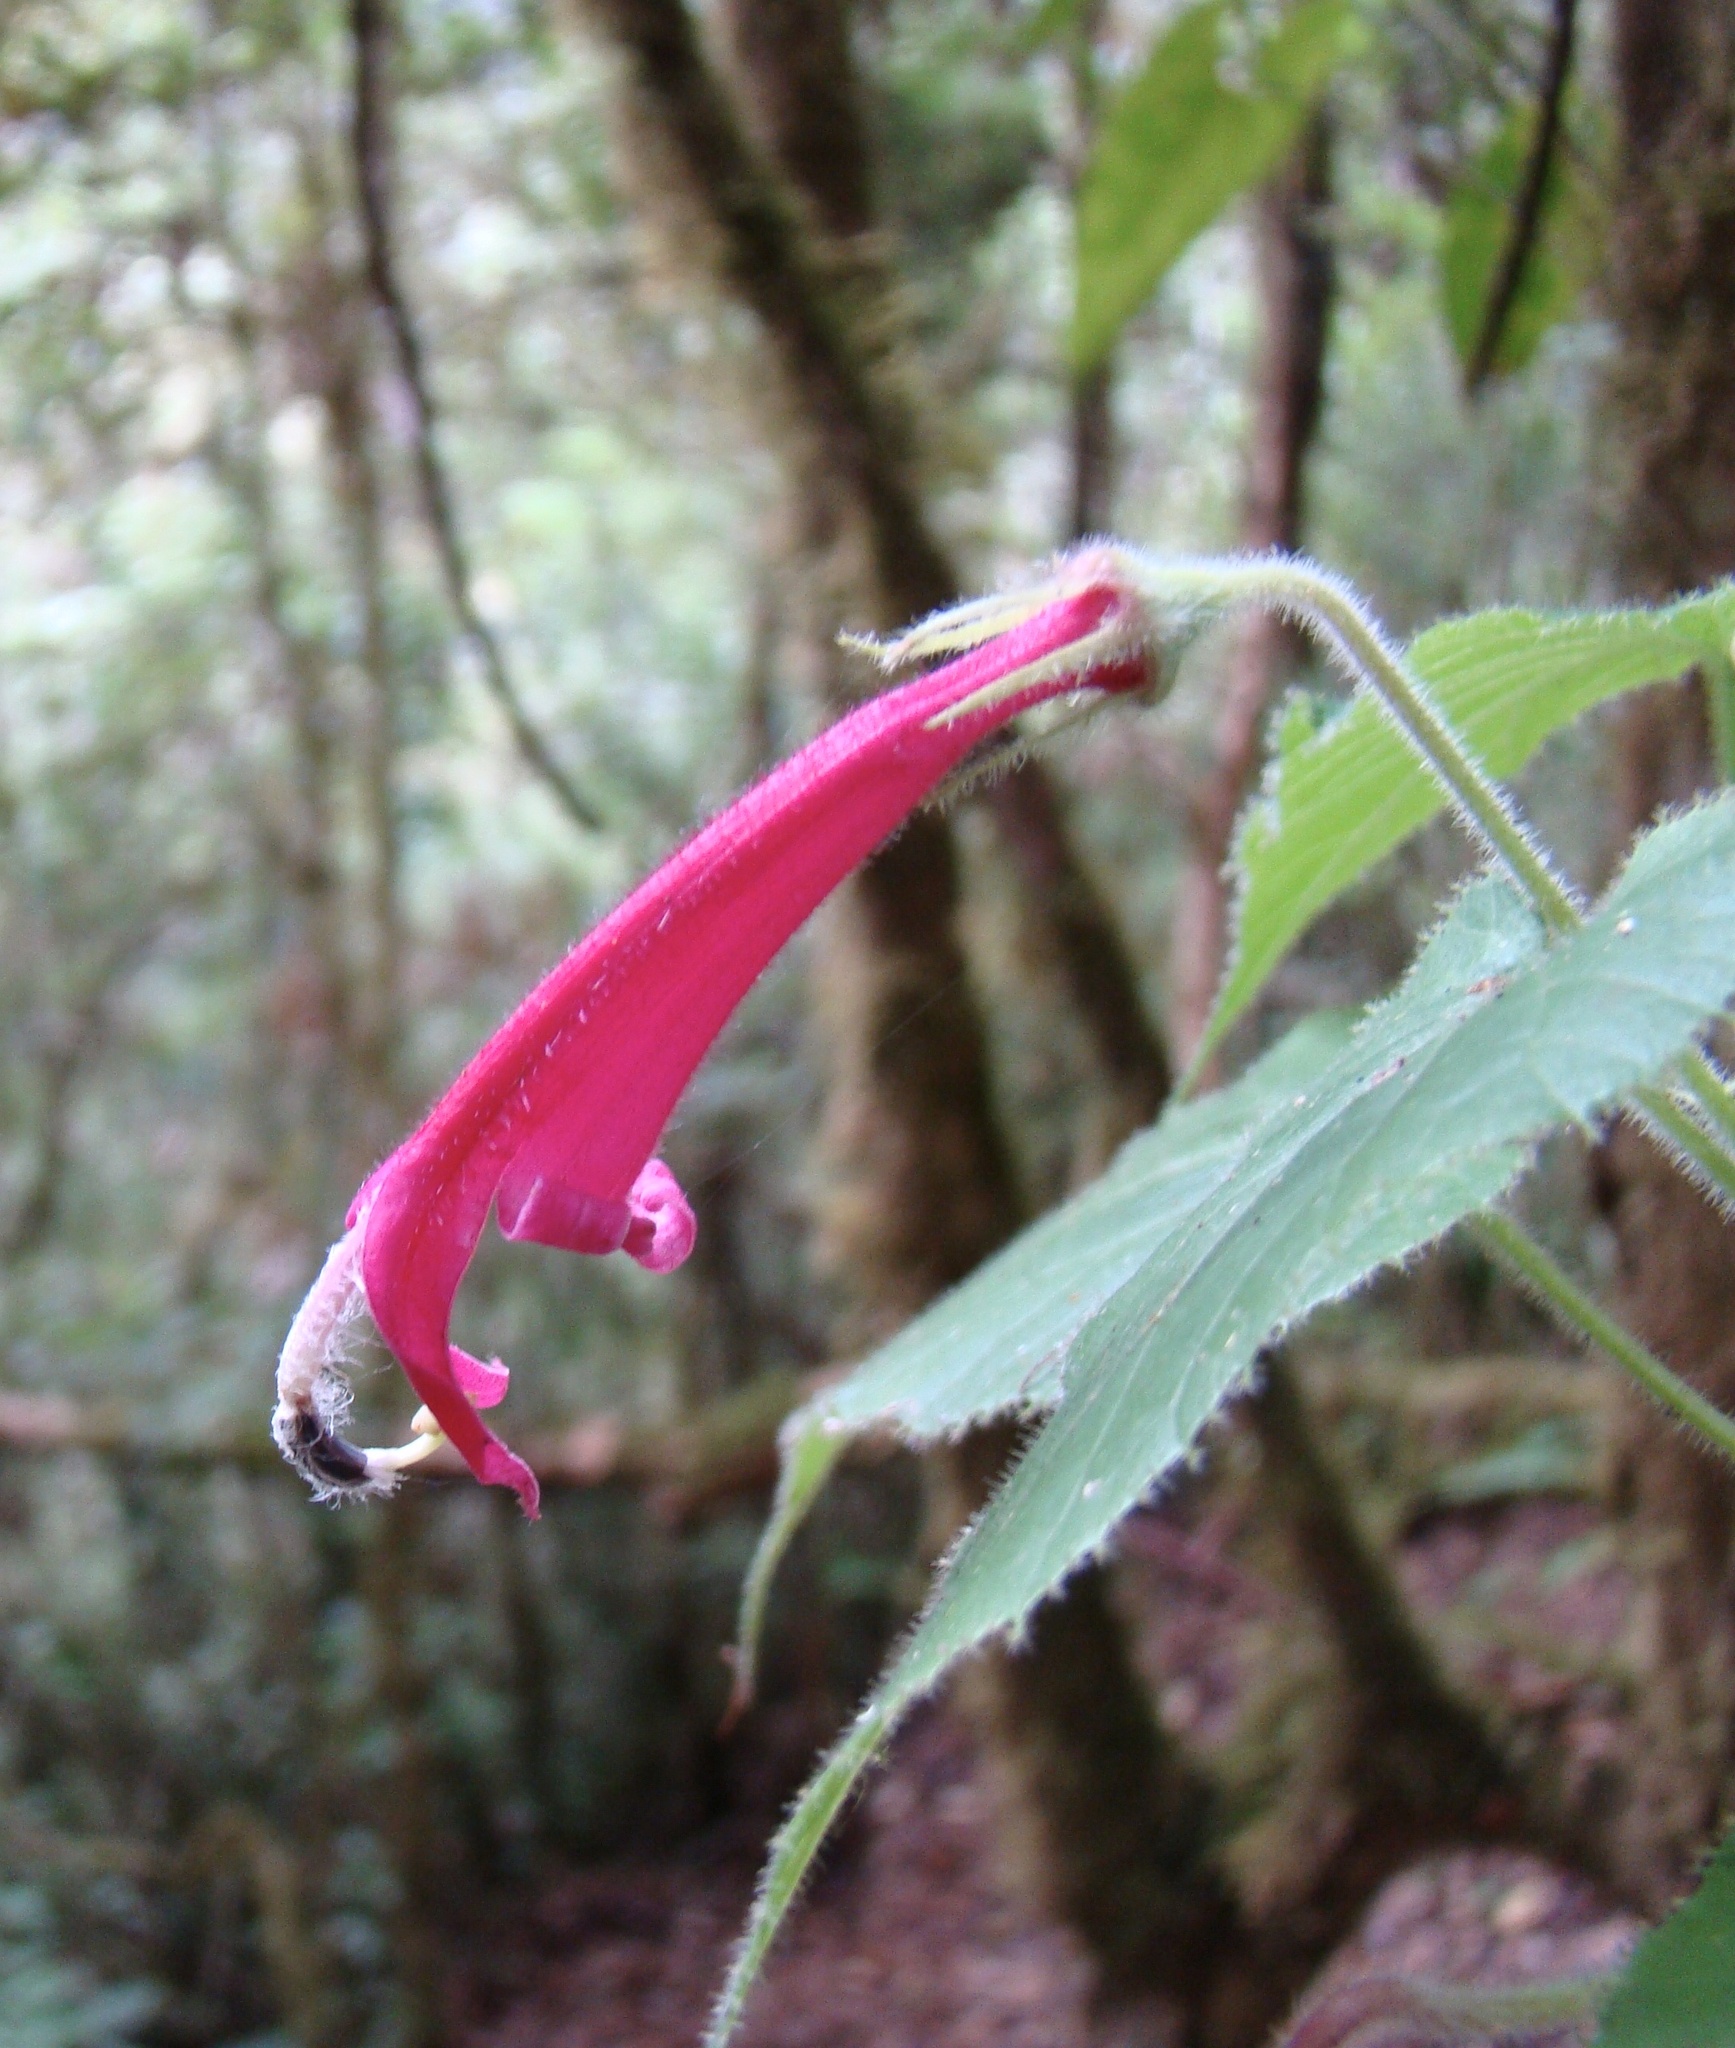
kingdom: Plantae
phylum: Tracheophyta
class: Magnoliopsida
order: Asterales
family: Campanulaceae
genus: Siphocampylus
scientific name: Siphocampylus nematosepalus
